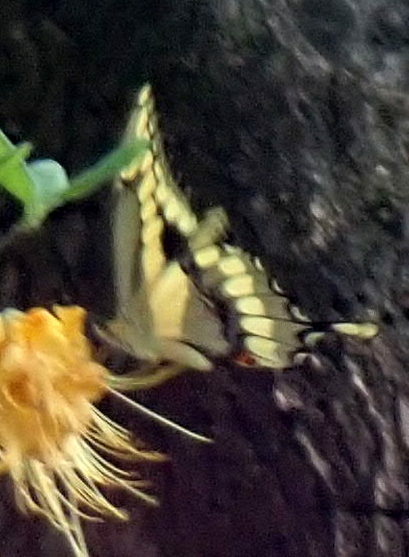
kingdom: Animalia
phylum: Arthropoda
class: Insecta
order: Lepidoptera
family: Papilionidae
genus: Papilio
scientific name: Papilio cresphontes
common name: Giant swallowtail
